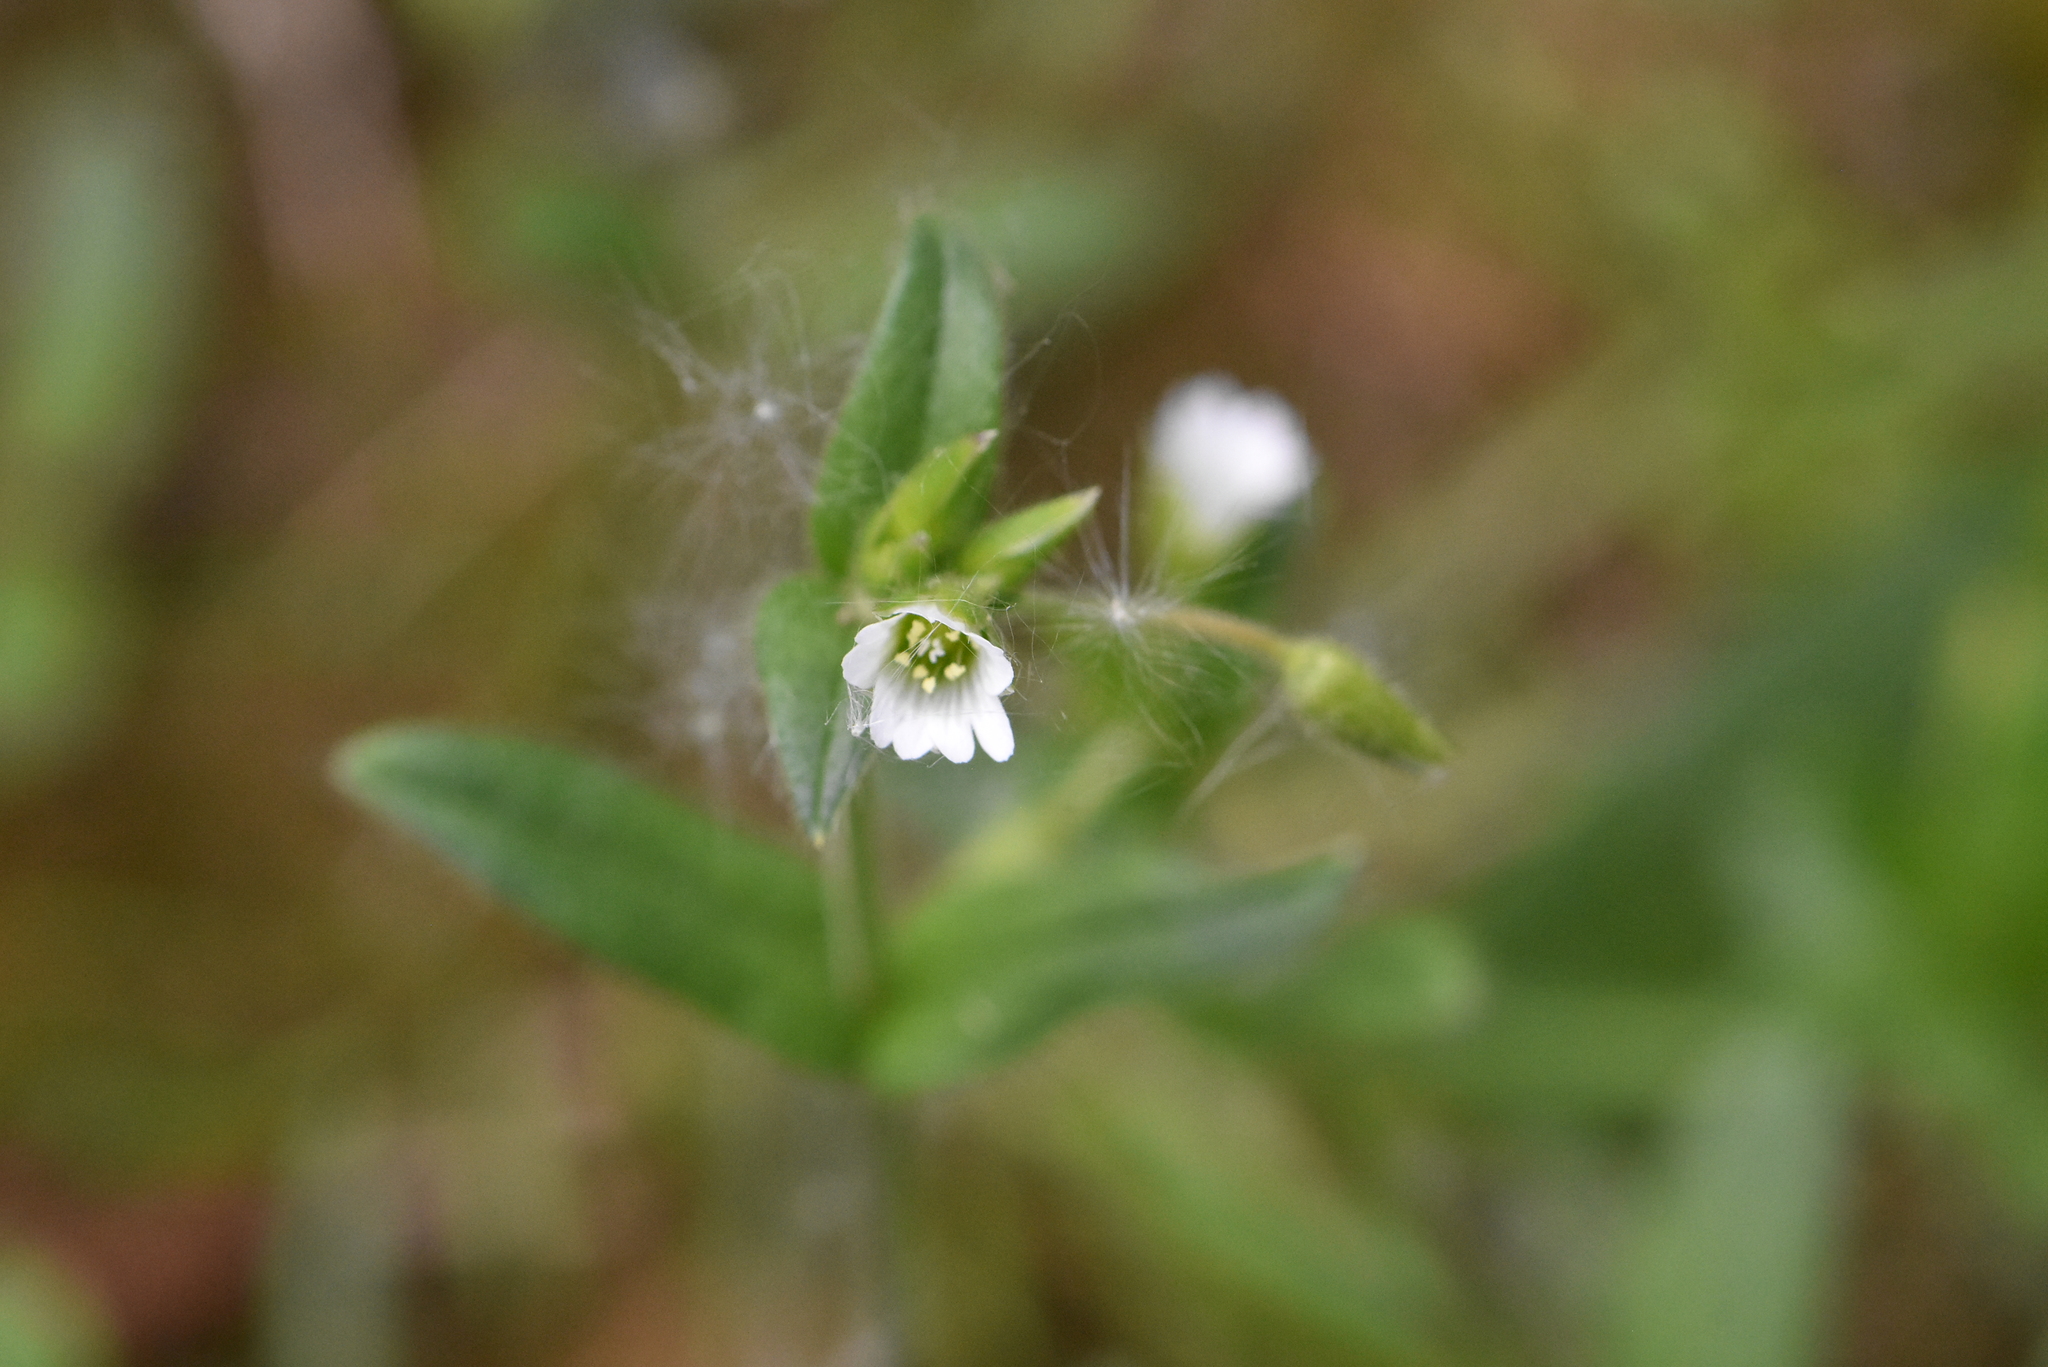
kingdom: Plantae
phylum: Tracheophyta
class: Magnoliopsida
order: Caryophyllales
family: Caryophyllaceae
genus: Cerastium
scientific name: Cerastium holosteoides
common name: Big chickweed
